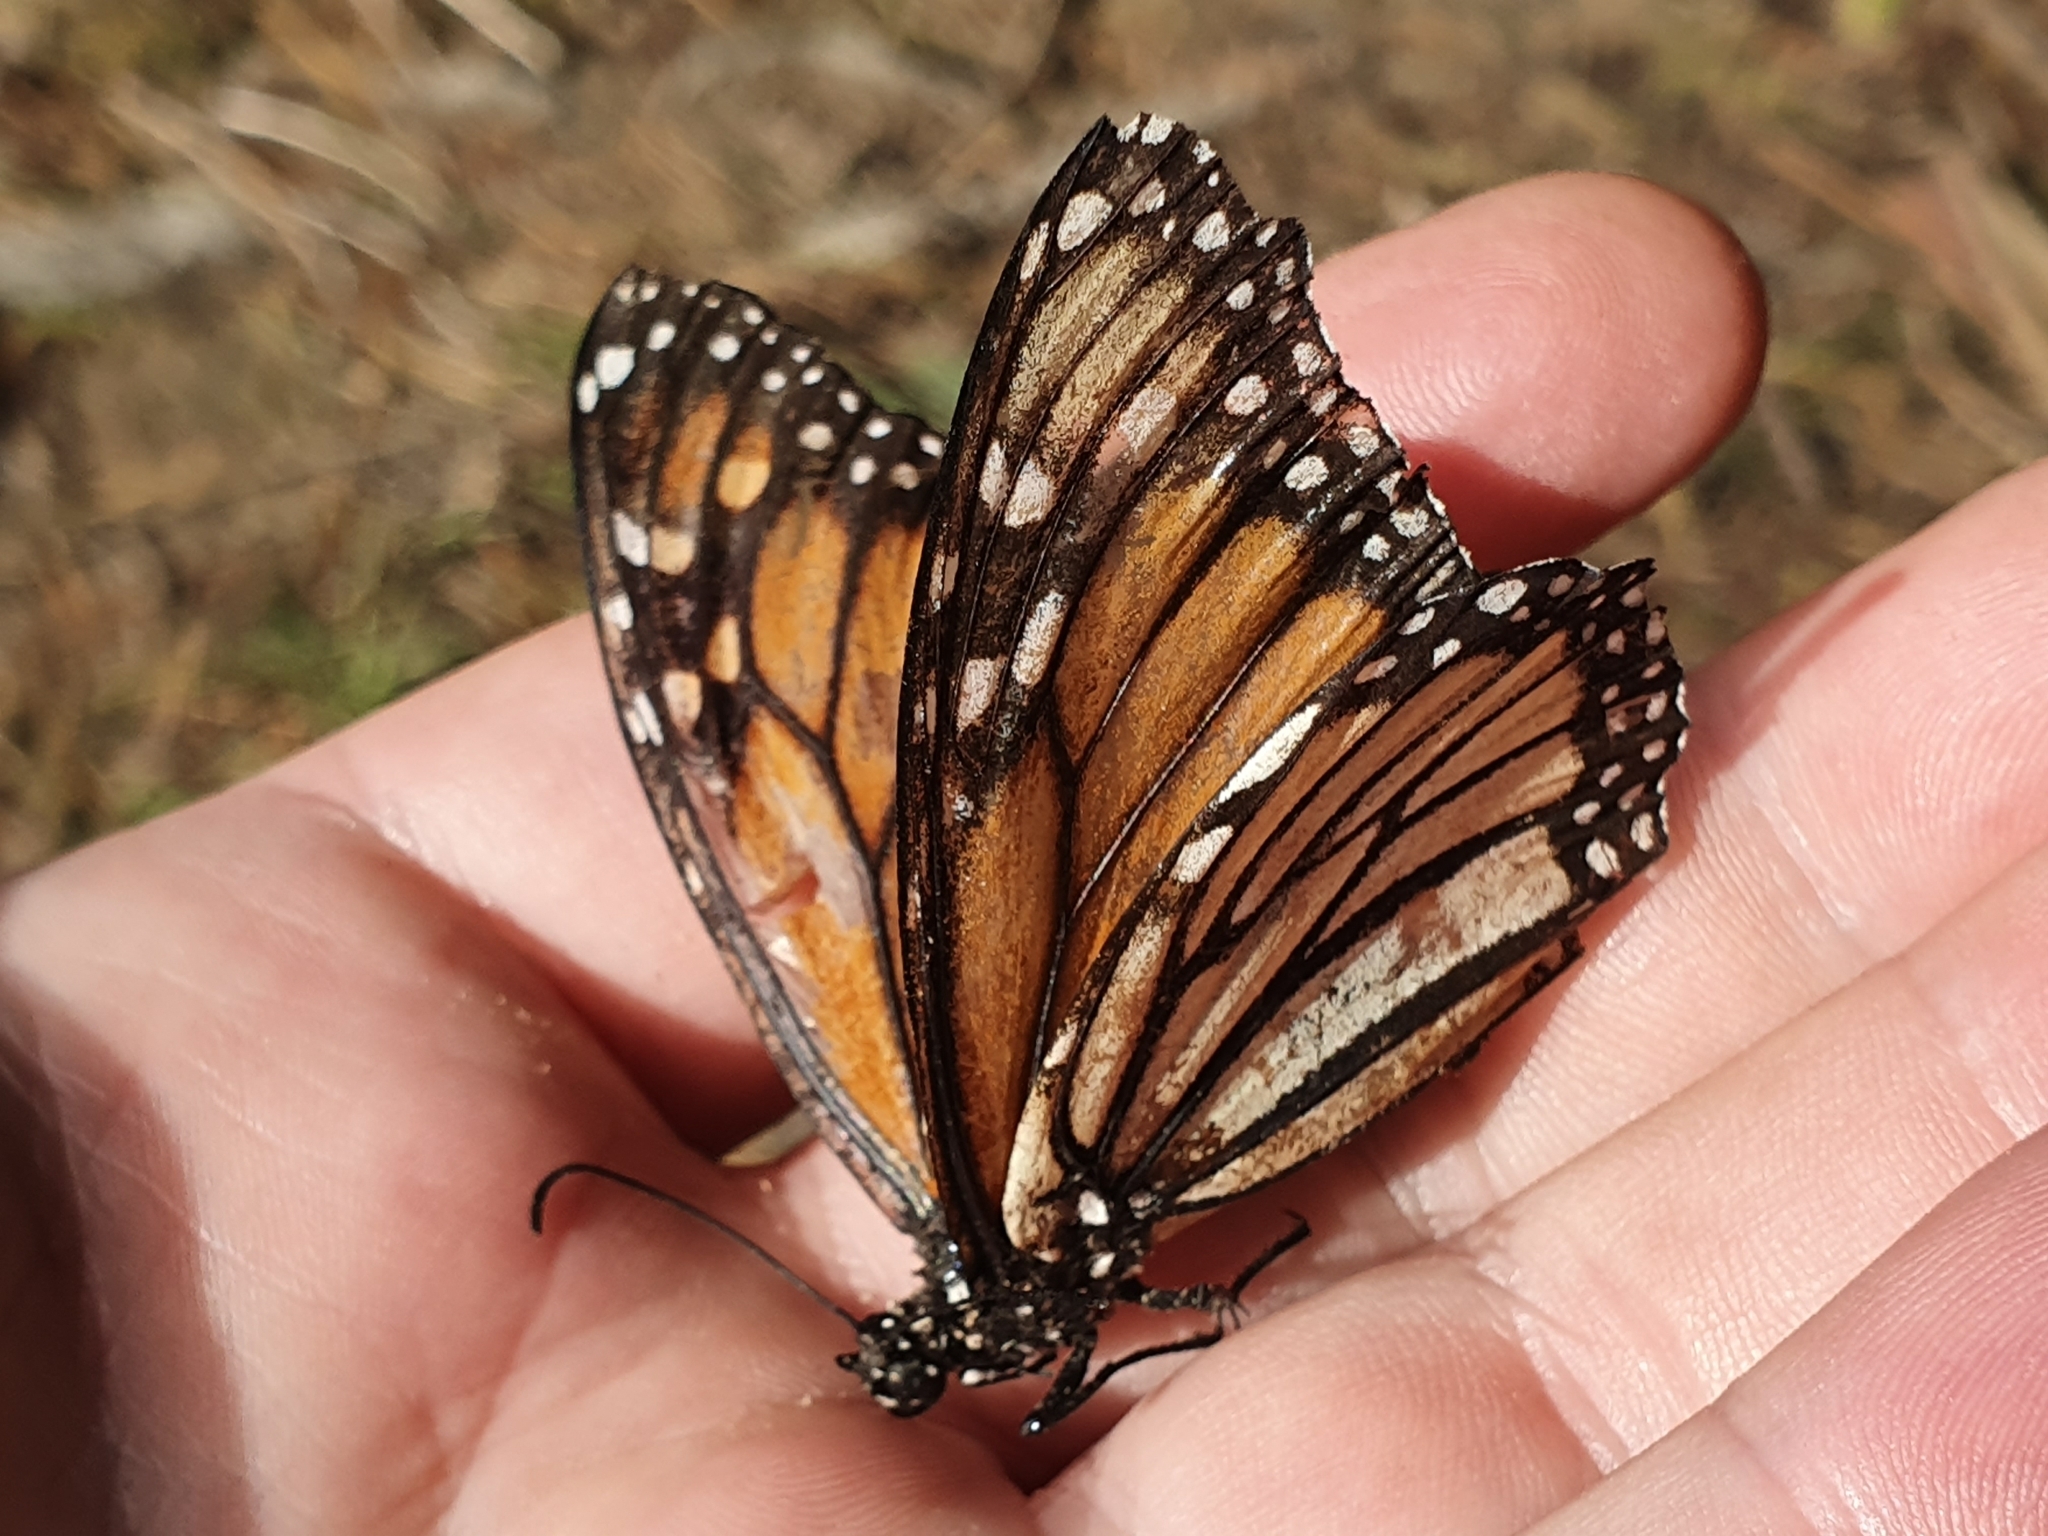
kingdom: Animalia
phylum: Arthropoda
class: Insecta
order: Lepidoptera
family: Nymphalidae
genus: Danaus
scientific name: Danaus plexippus
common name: Monarch
